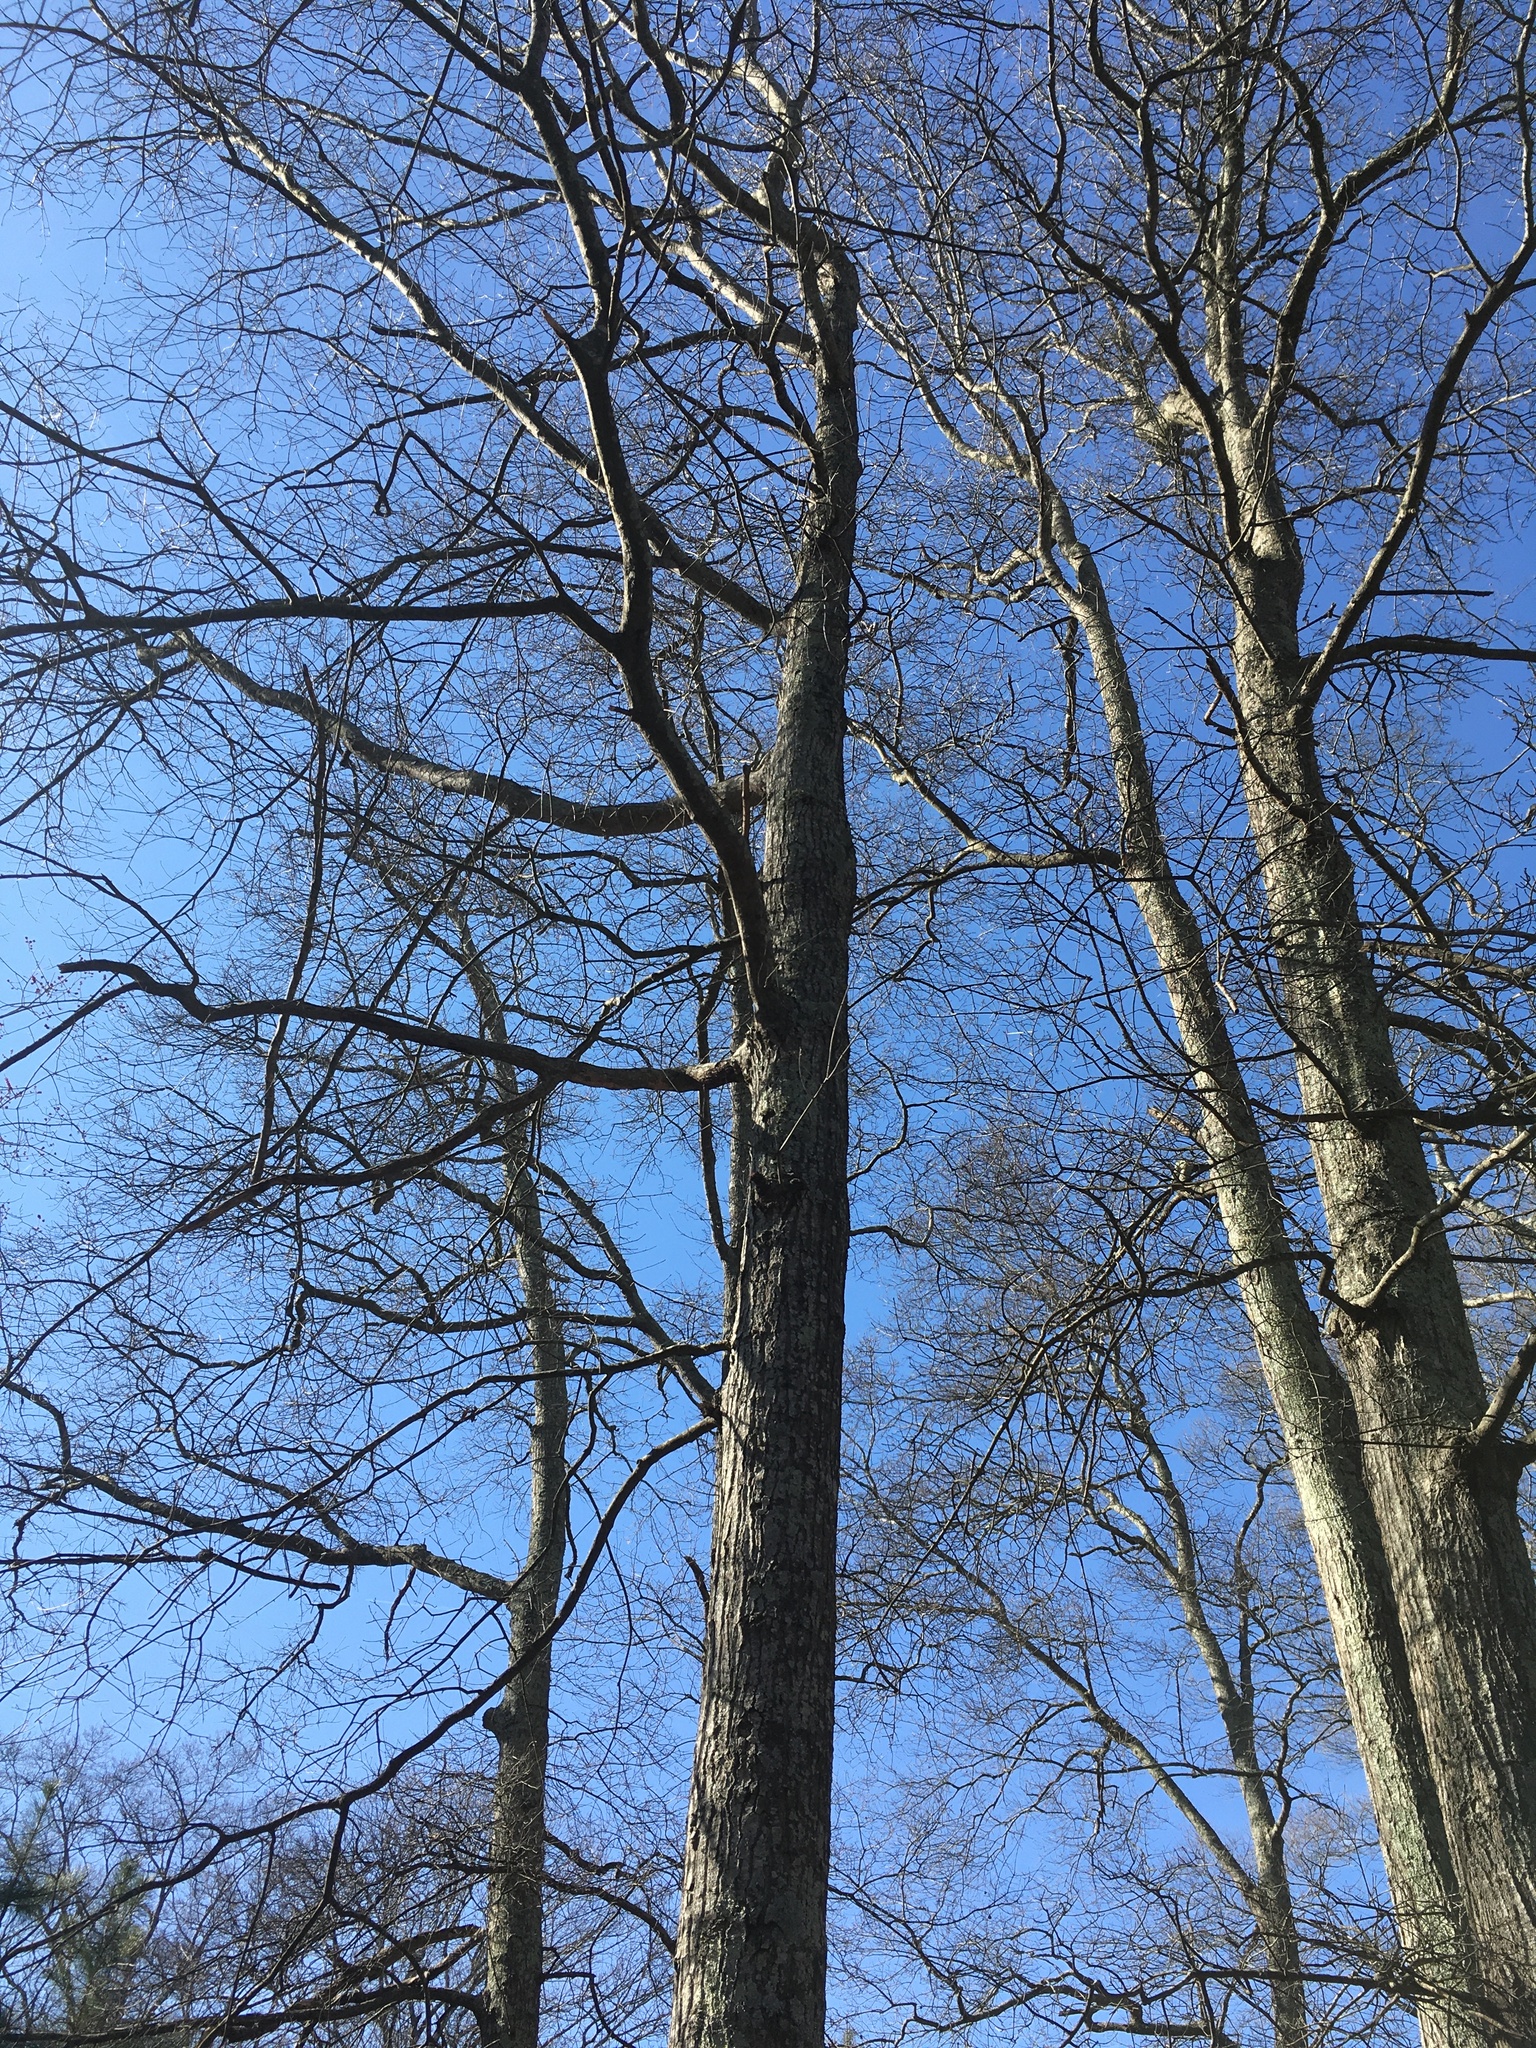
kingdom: Plantae
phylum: Tracheophyta
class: Magnoliopsida
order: Fagales
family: Fagaceae
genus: Quercus
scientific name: Quercus phellos
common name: Willow oak
